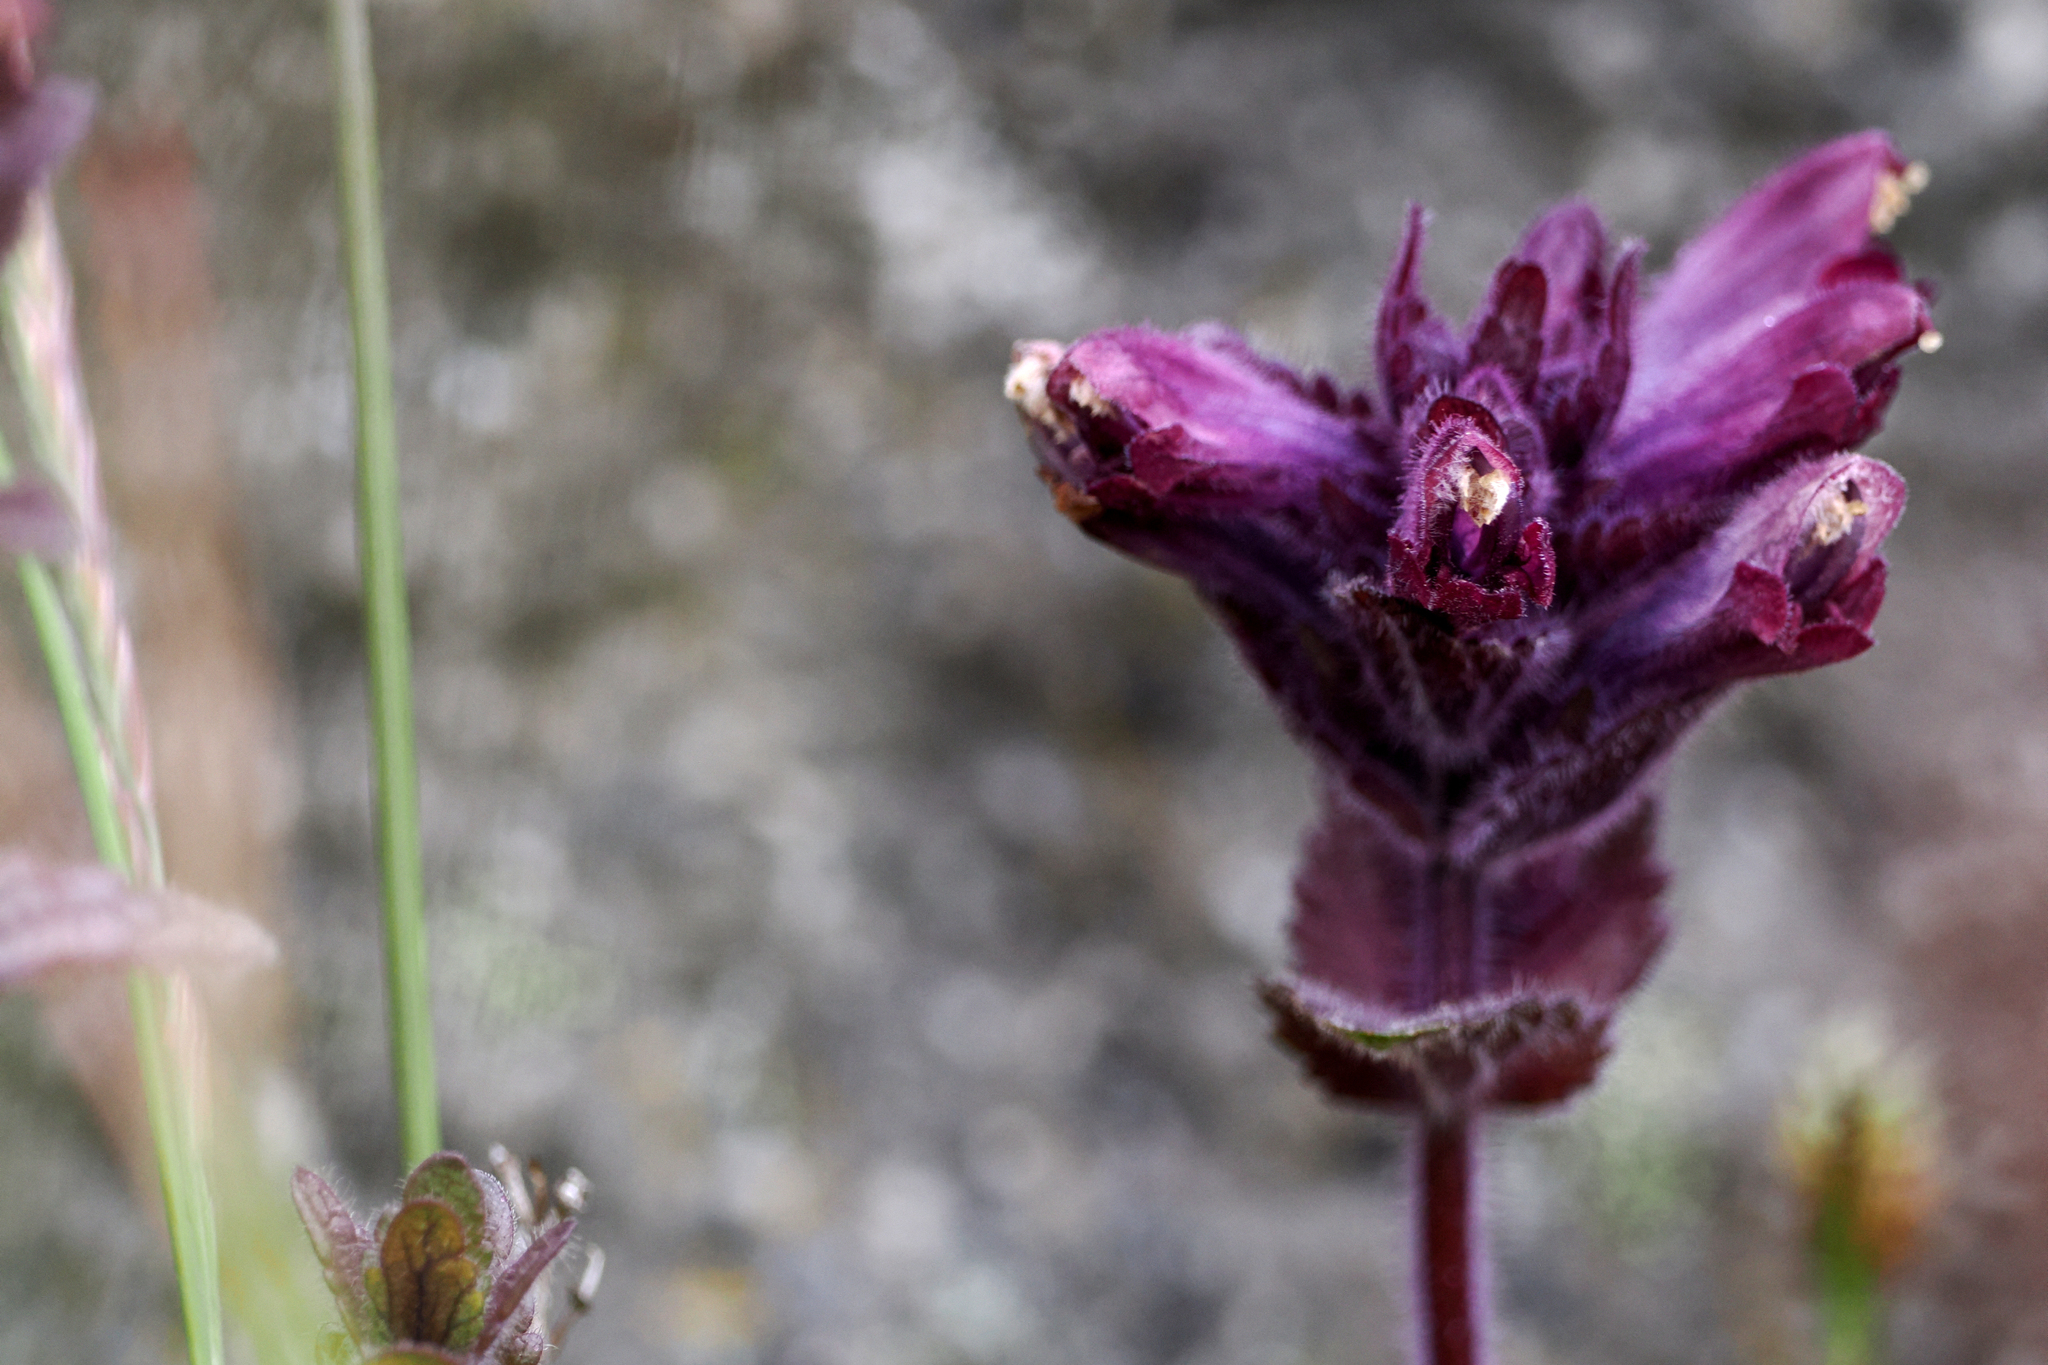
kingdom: Plantae
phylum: Tracheophyta
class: Magnoliopsida
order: Lamiales
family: Orobanchaceae
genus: Bartsia
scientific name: Bartsia alpina
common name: Alpine bartsia
